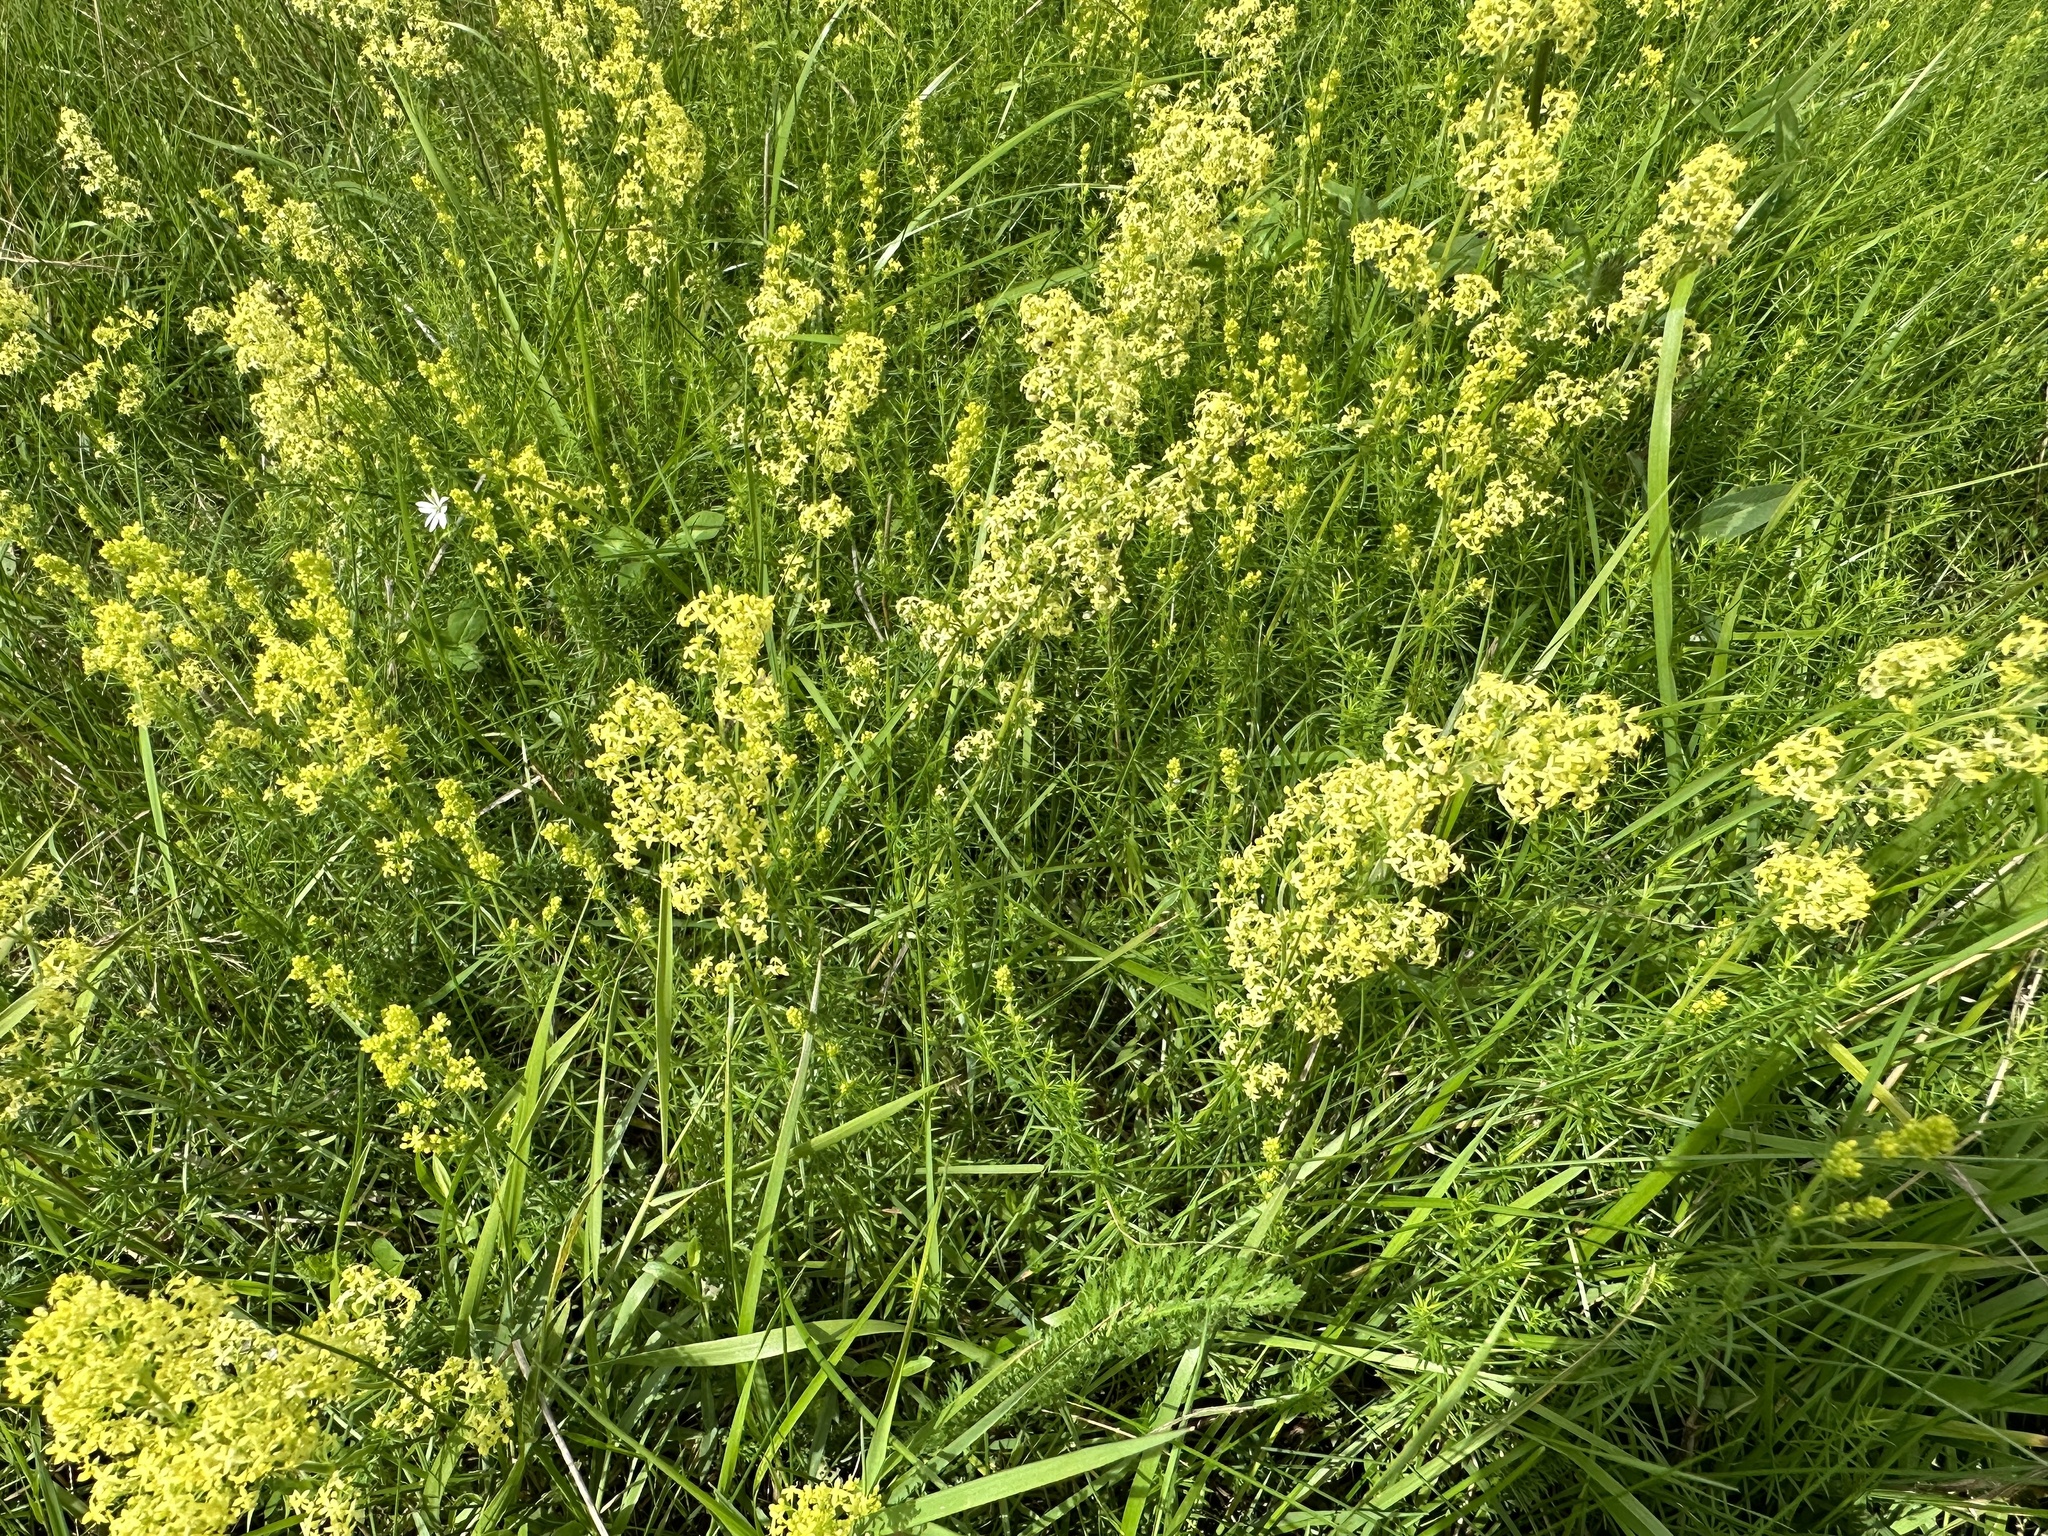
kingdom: Plantae
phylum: Tracheophyta
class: Magnoliopsida
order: Gentianales
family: Rubiaceae
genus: Galium
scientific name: Galium verum
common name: Lady's bedstraw
